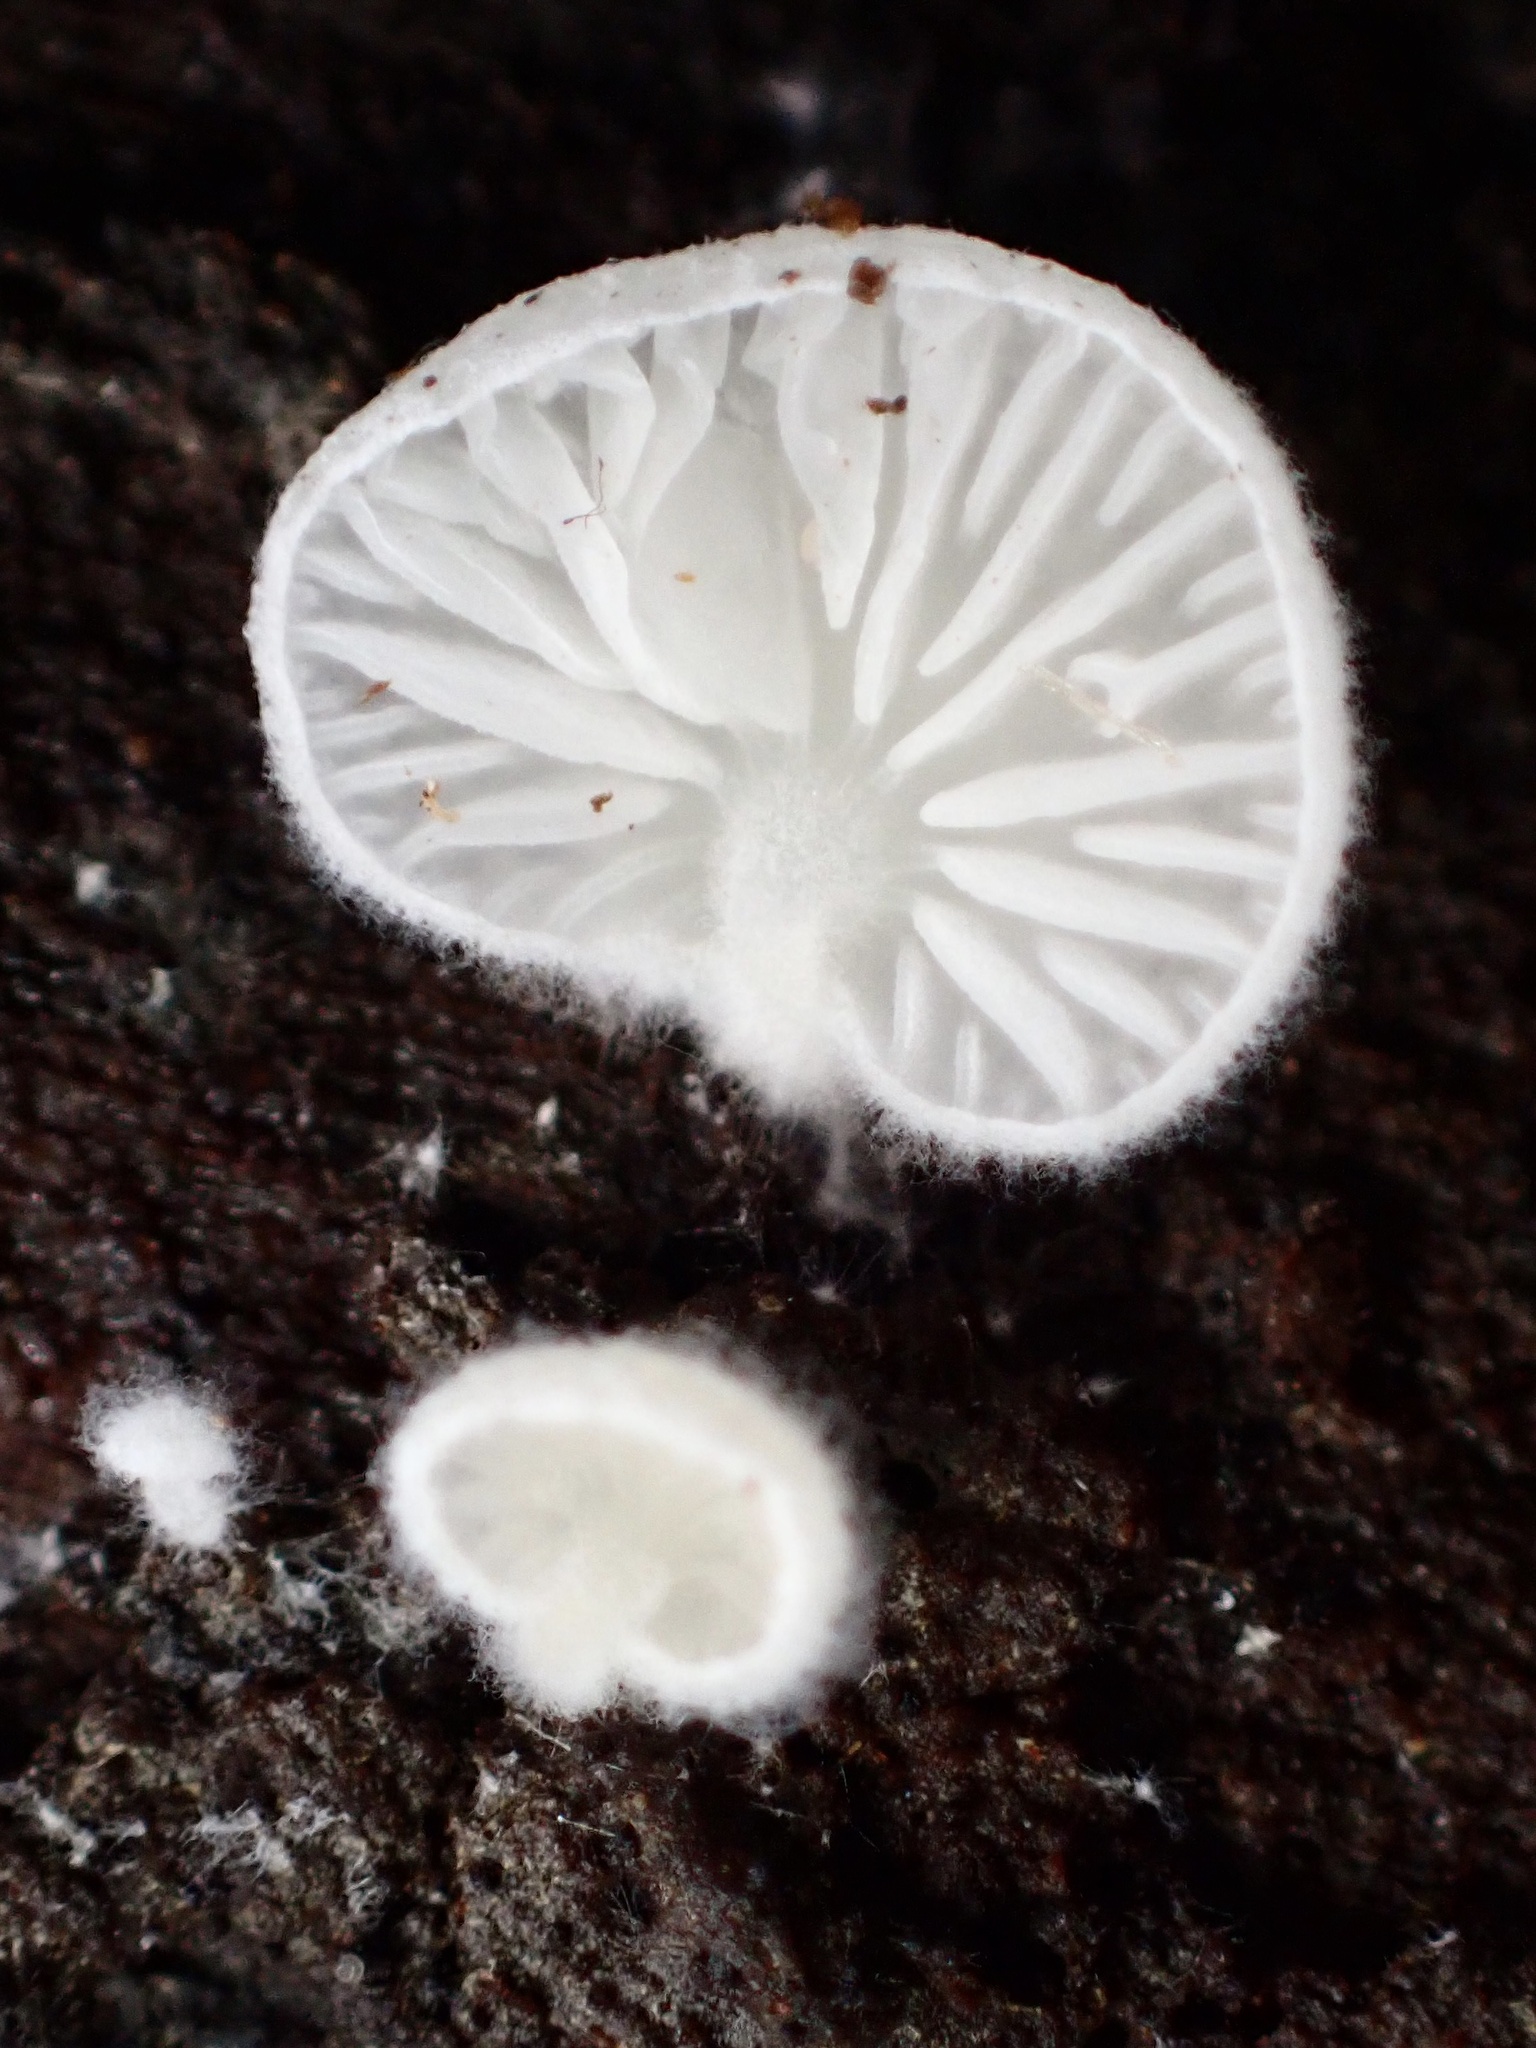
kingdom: Fungi
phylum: Basidiomycota
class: Agaricomycetes
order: Agaricales
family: Entolomataceae
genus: Clitopilus
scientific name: Clitopilus hobsonii
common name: Miller's oysterling
